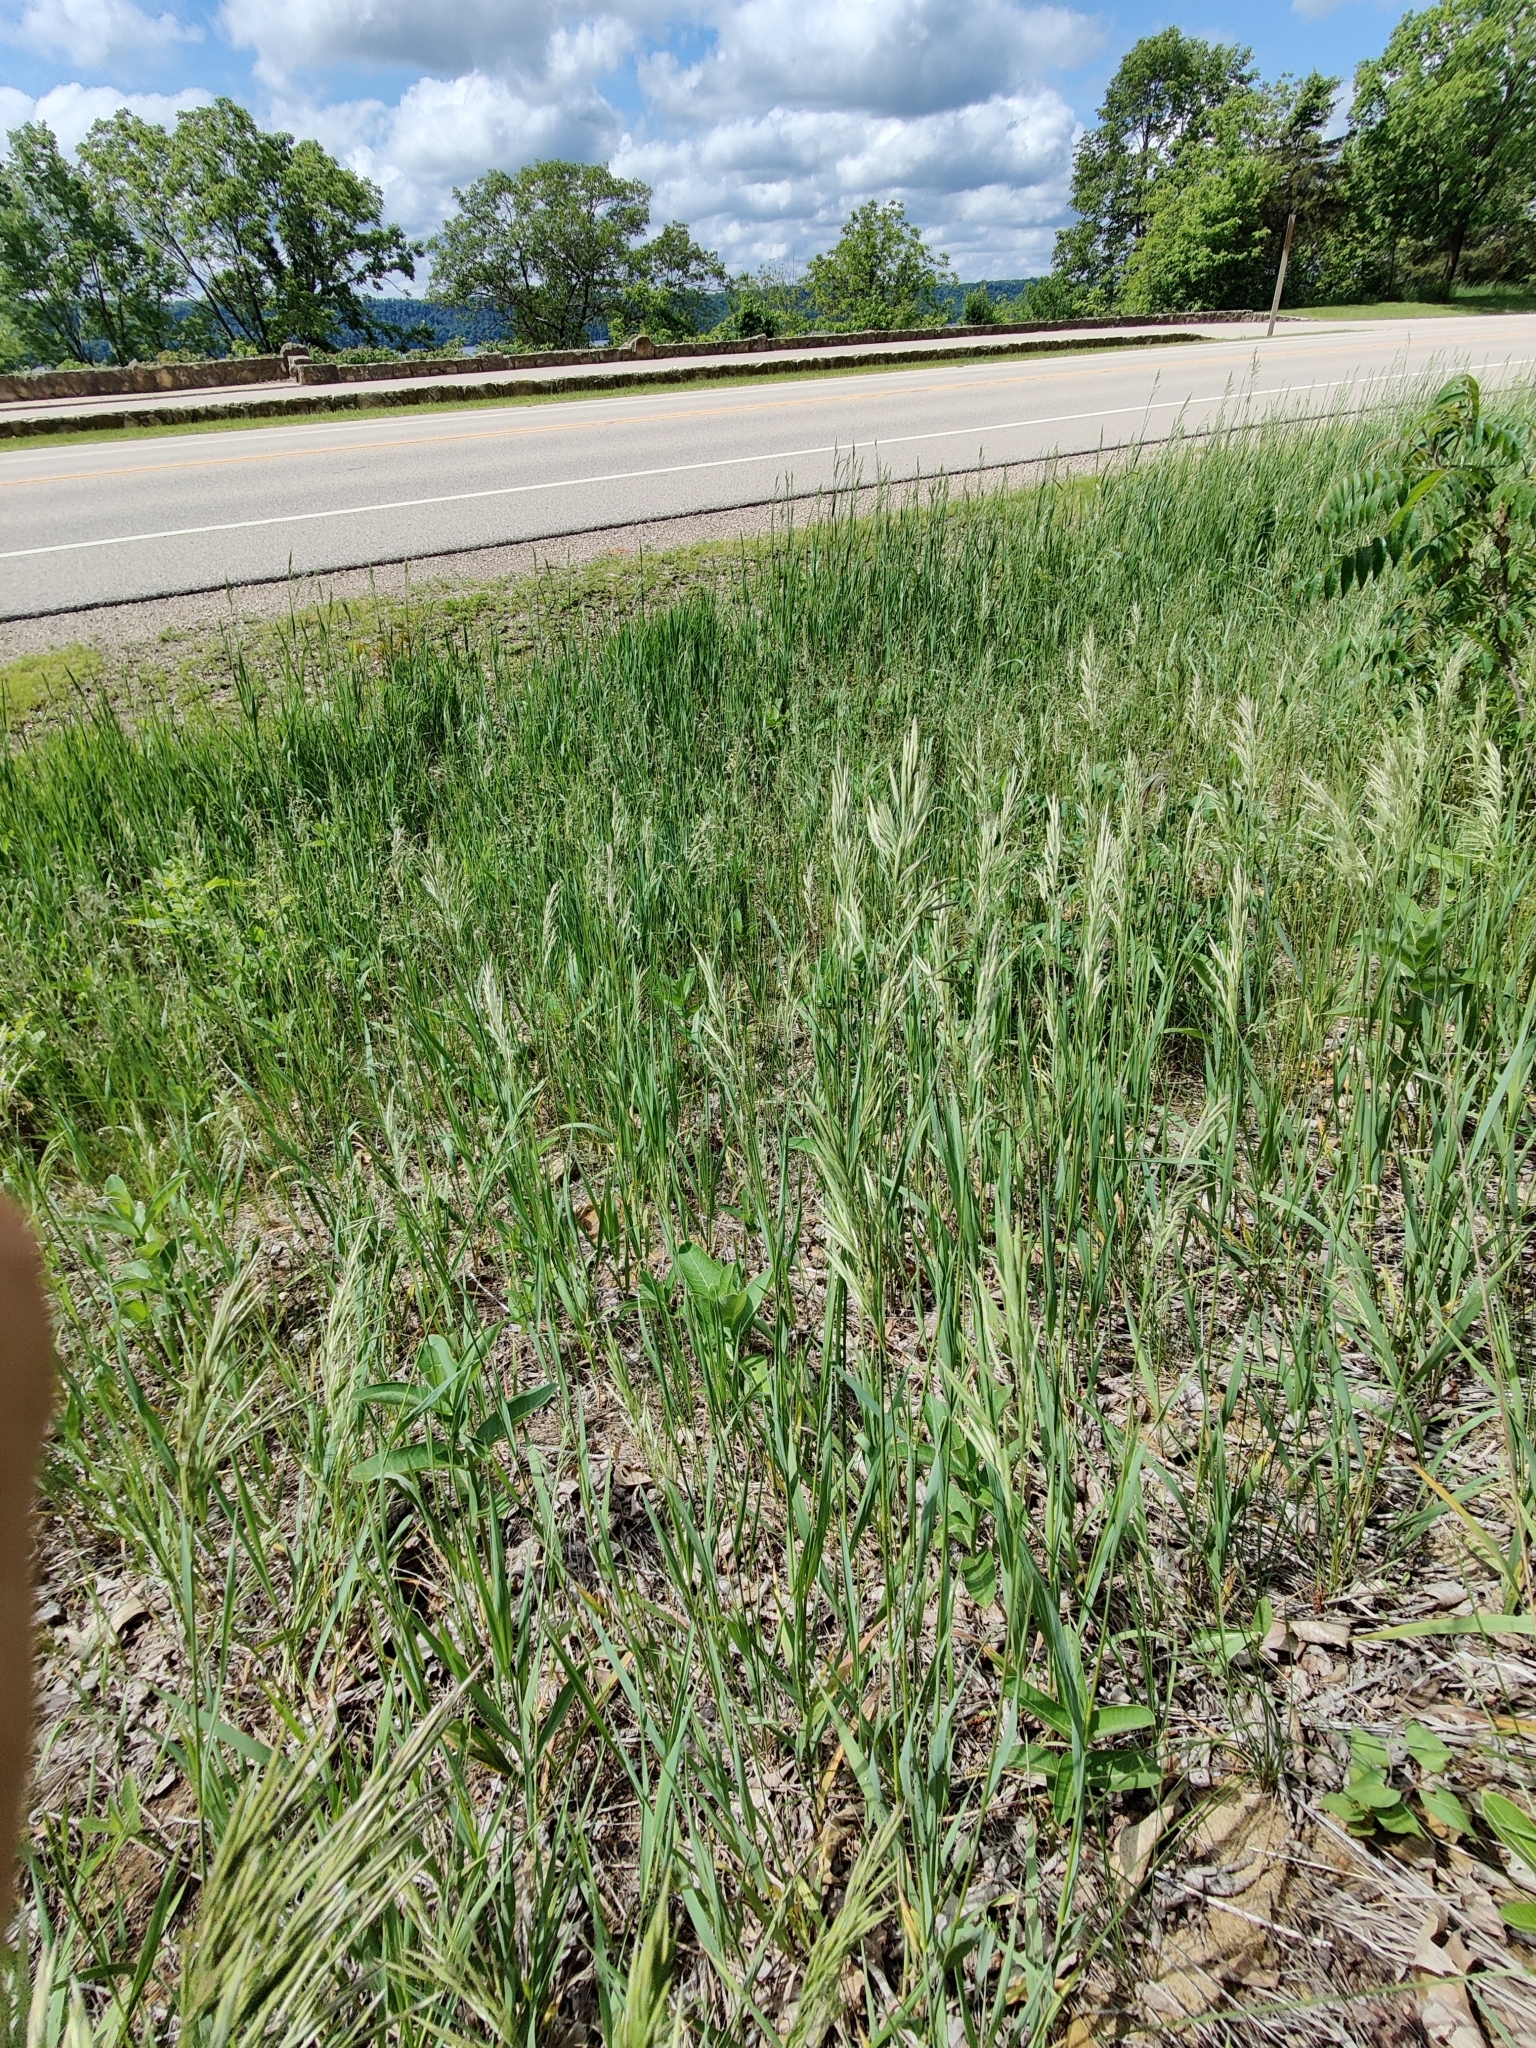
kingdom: Plantae
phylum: Tracheophyta
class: Magnoliopsida
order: Gentianales
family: Apocynaceae
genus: Asclepias
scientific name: Asclepias syriaca
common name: Common milkweed
